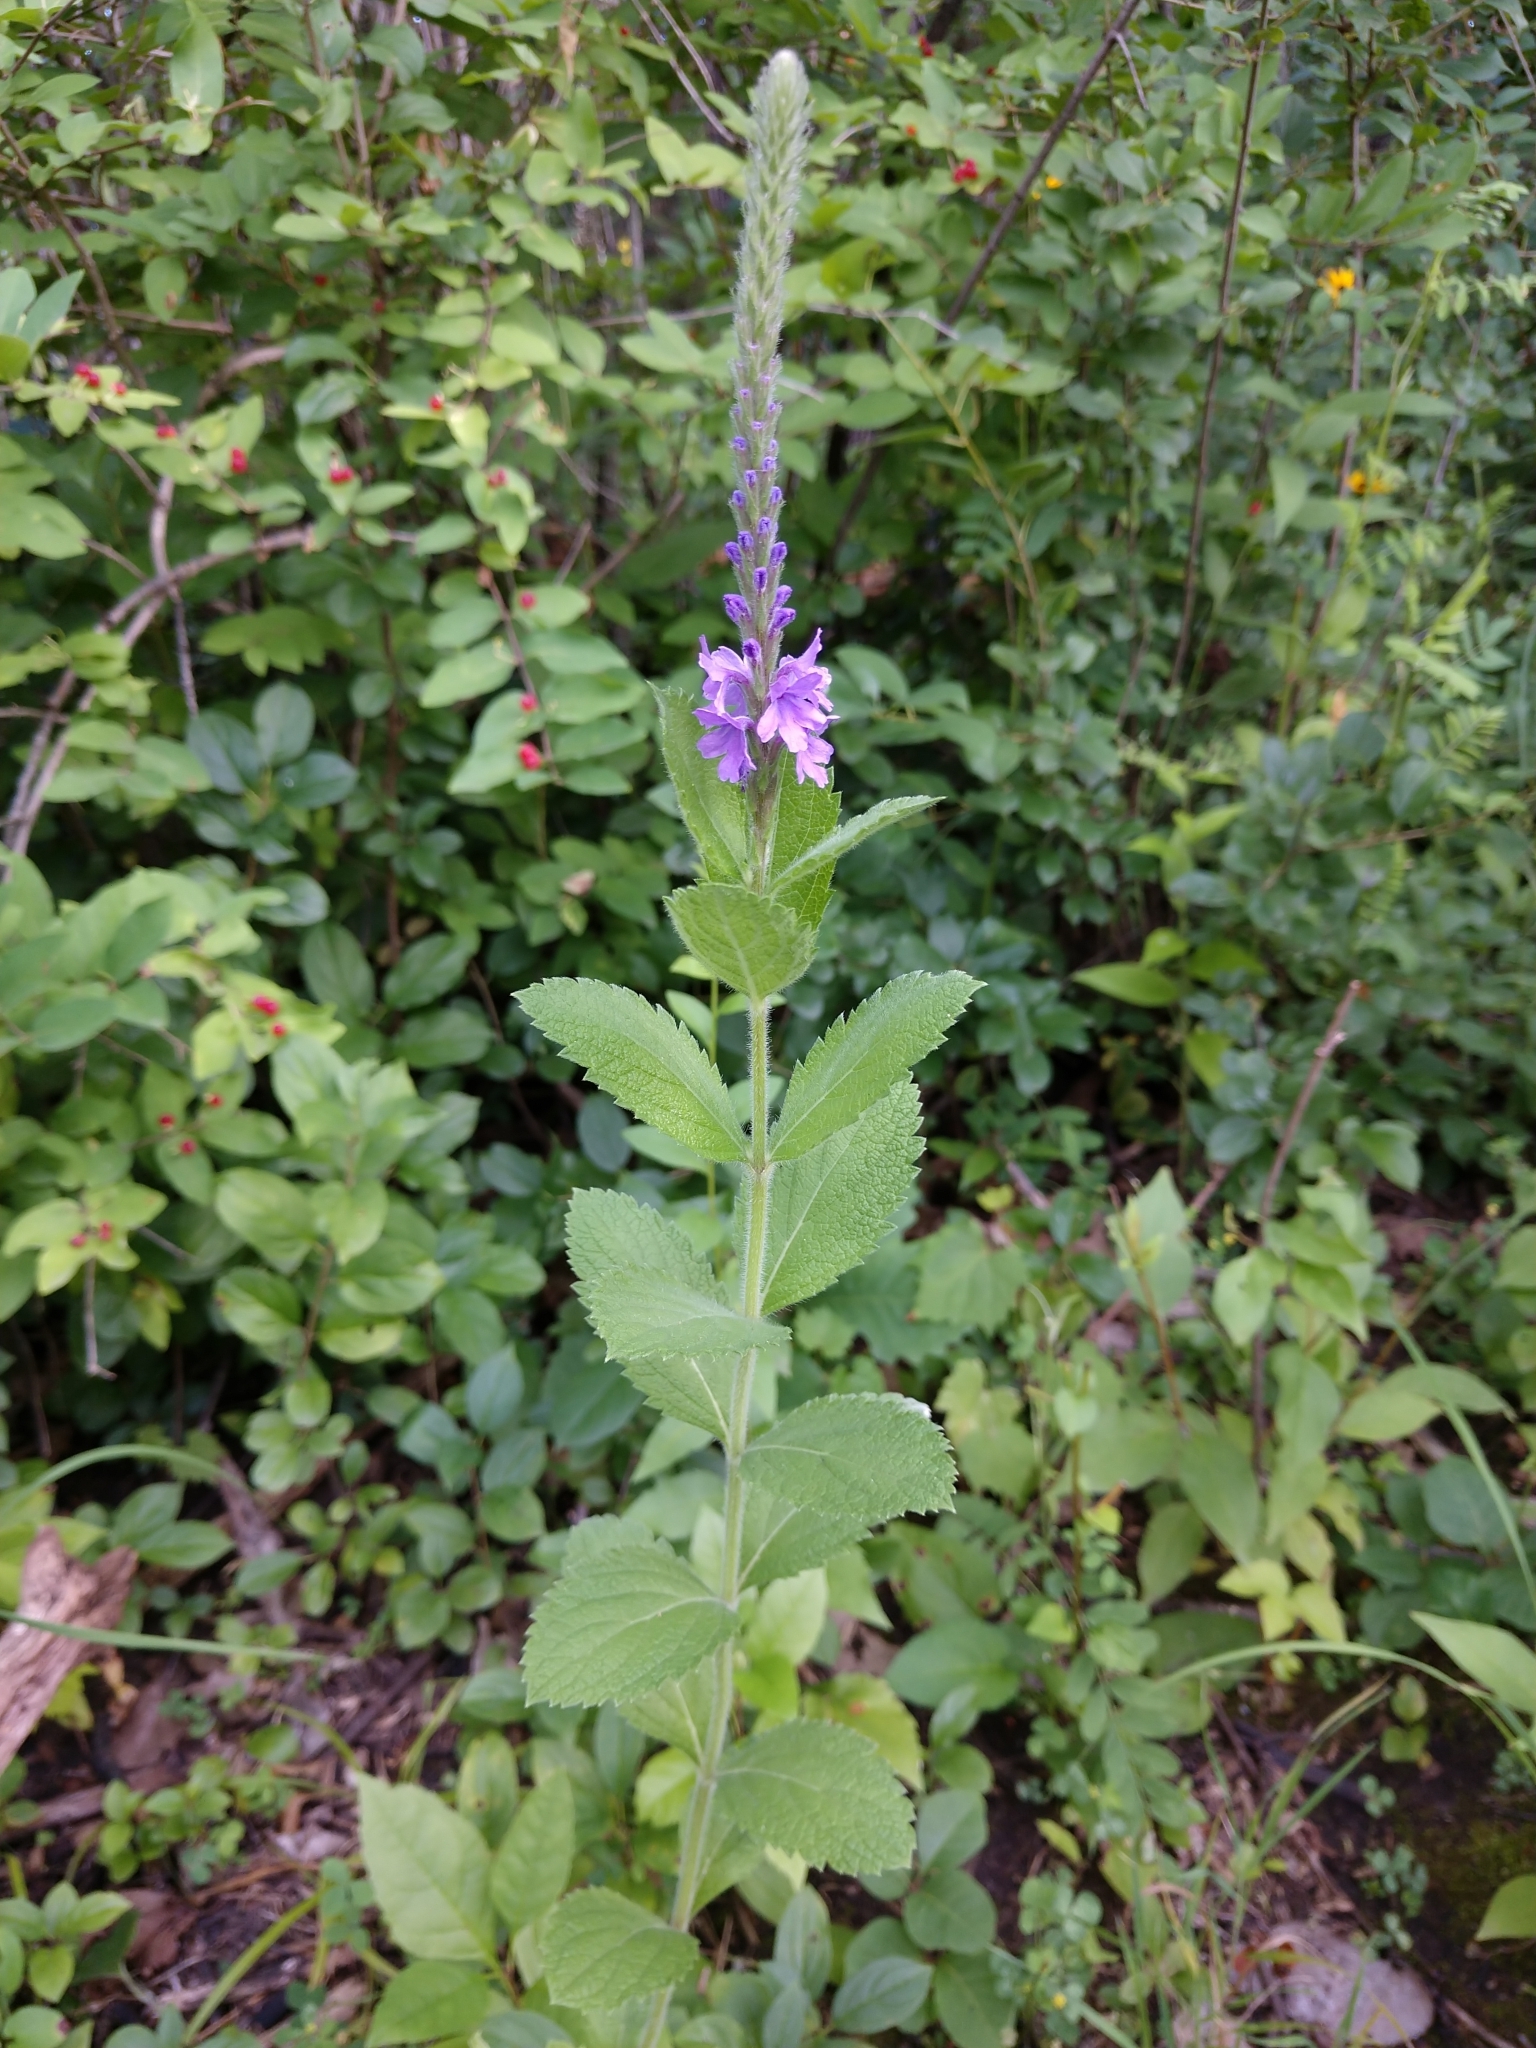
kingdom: Plantae
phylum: Tracheophyta
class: Magnoliopsida
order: Lamiales
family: Verbenaceae
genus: Verbena
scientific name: Verbena stricta
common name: Hoary vervain
